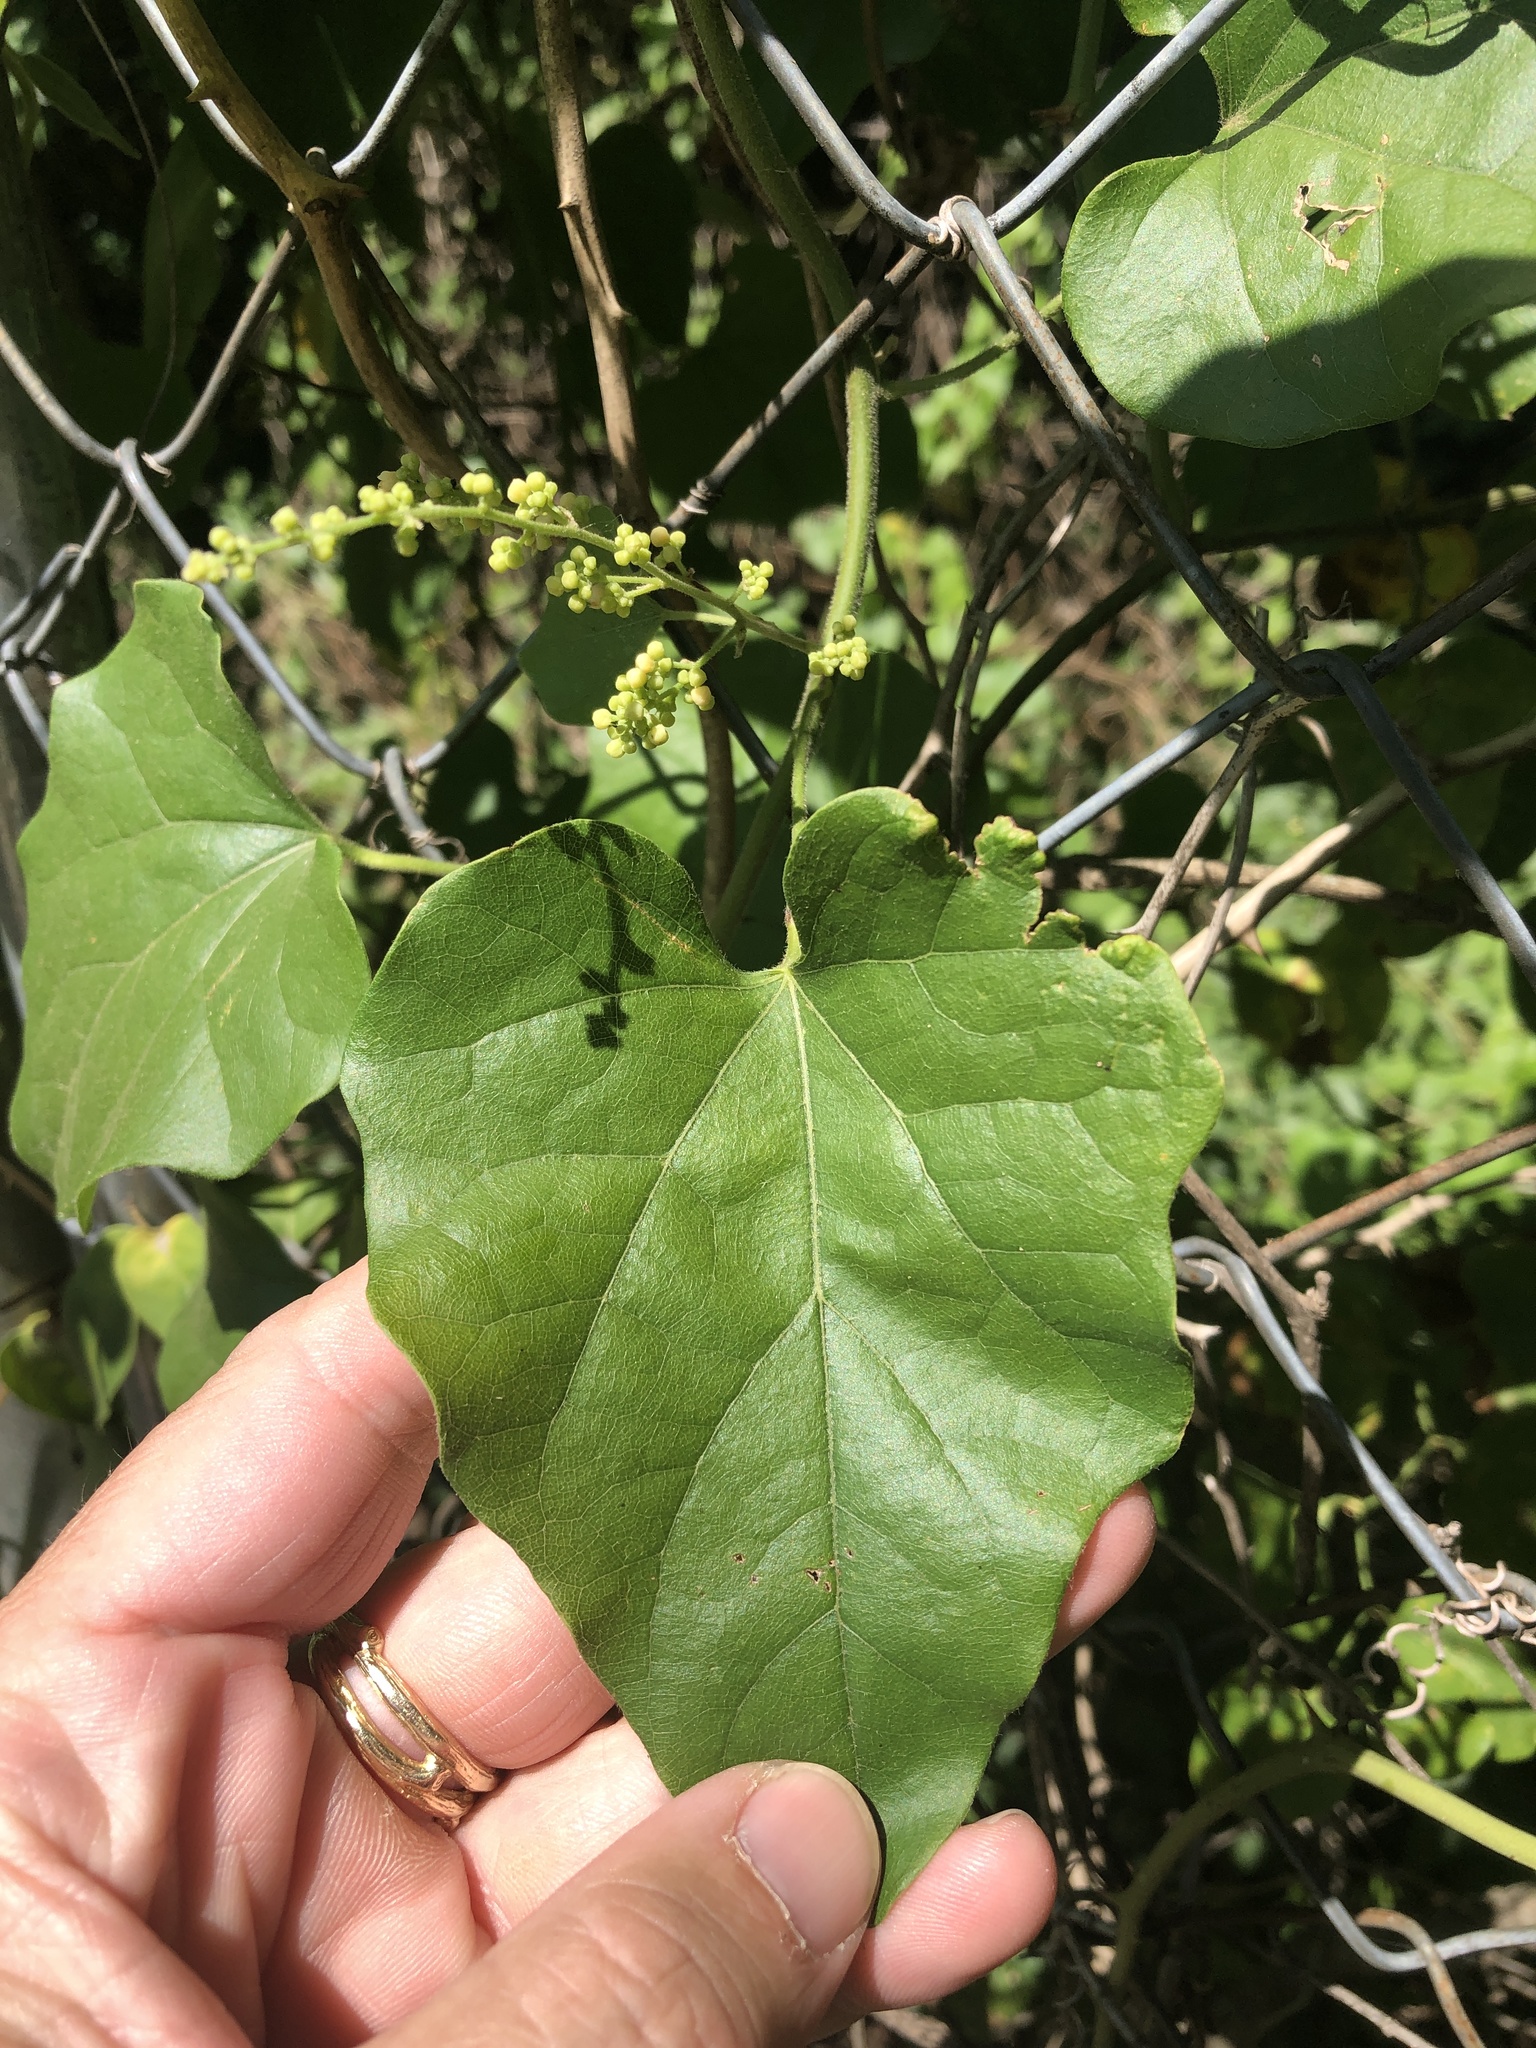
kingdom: Plantae
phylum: Tracheophyta
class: Magnoliopsida
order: Ranunculales
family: Menispermaceae
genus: Cocculus
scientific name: Cocculus carolinus
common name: Carolina moonseed
